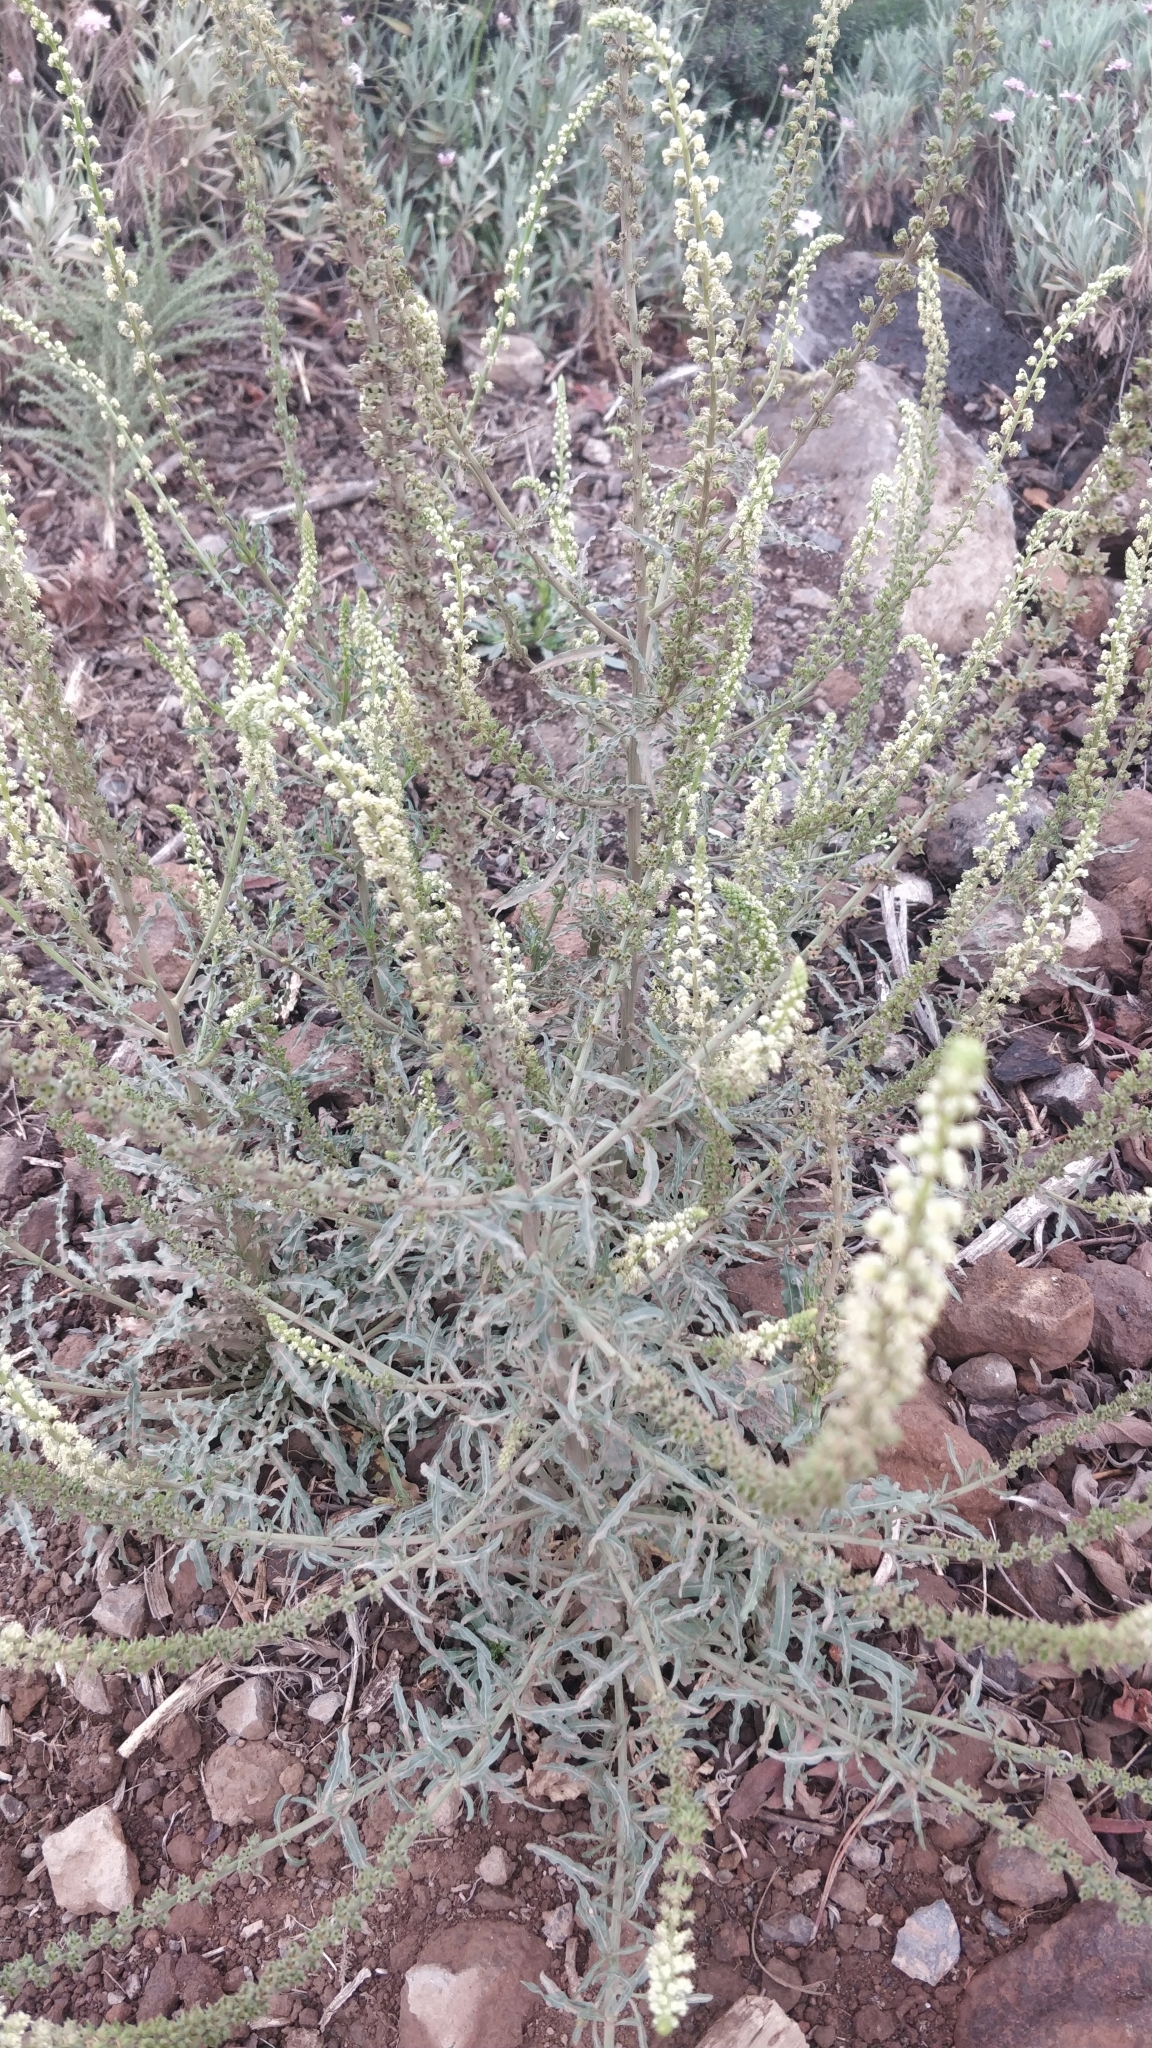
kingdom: Plantae
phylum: Tracheophyta
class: Magnoliopsida
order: Brassicales
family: Resedaceae
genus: Reseda
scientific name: Reseda luteola
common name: Weld
